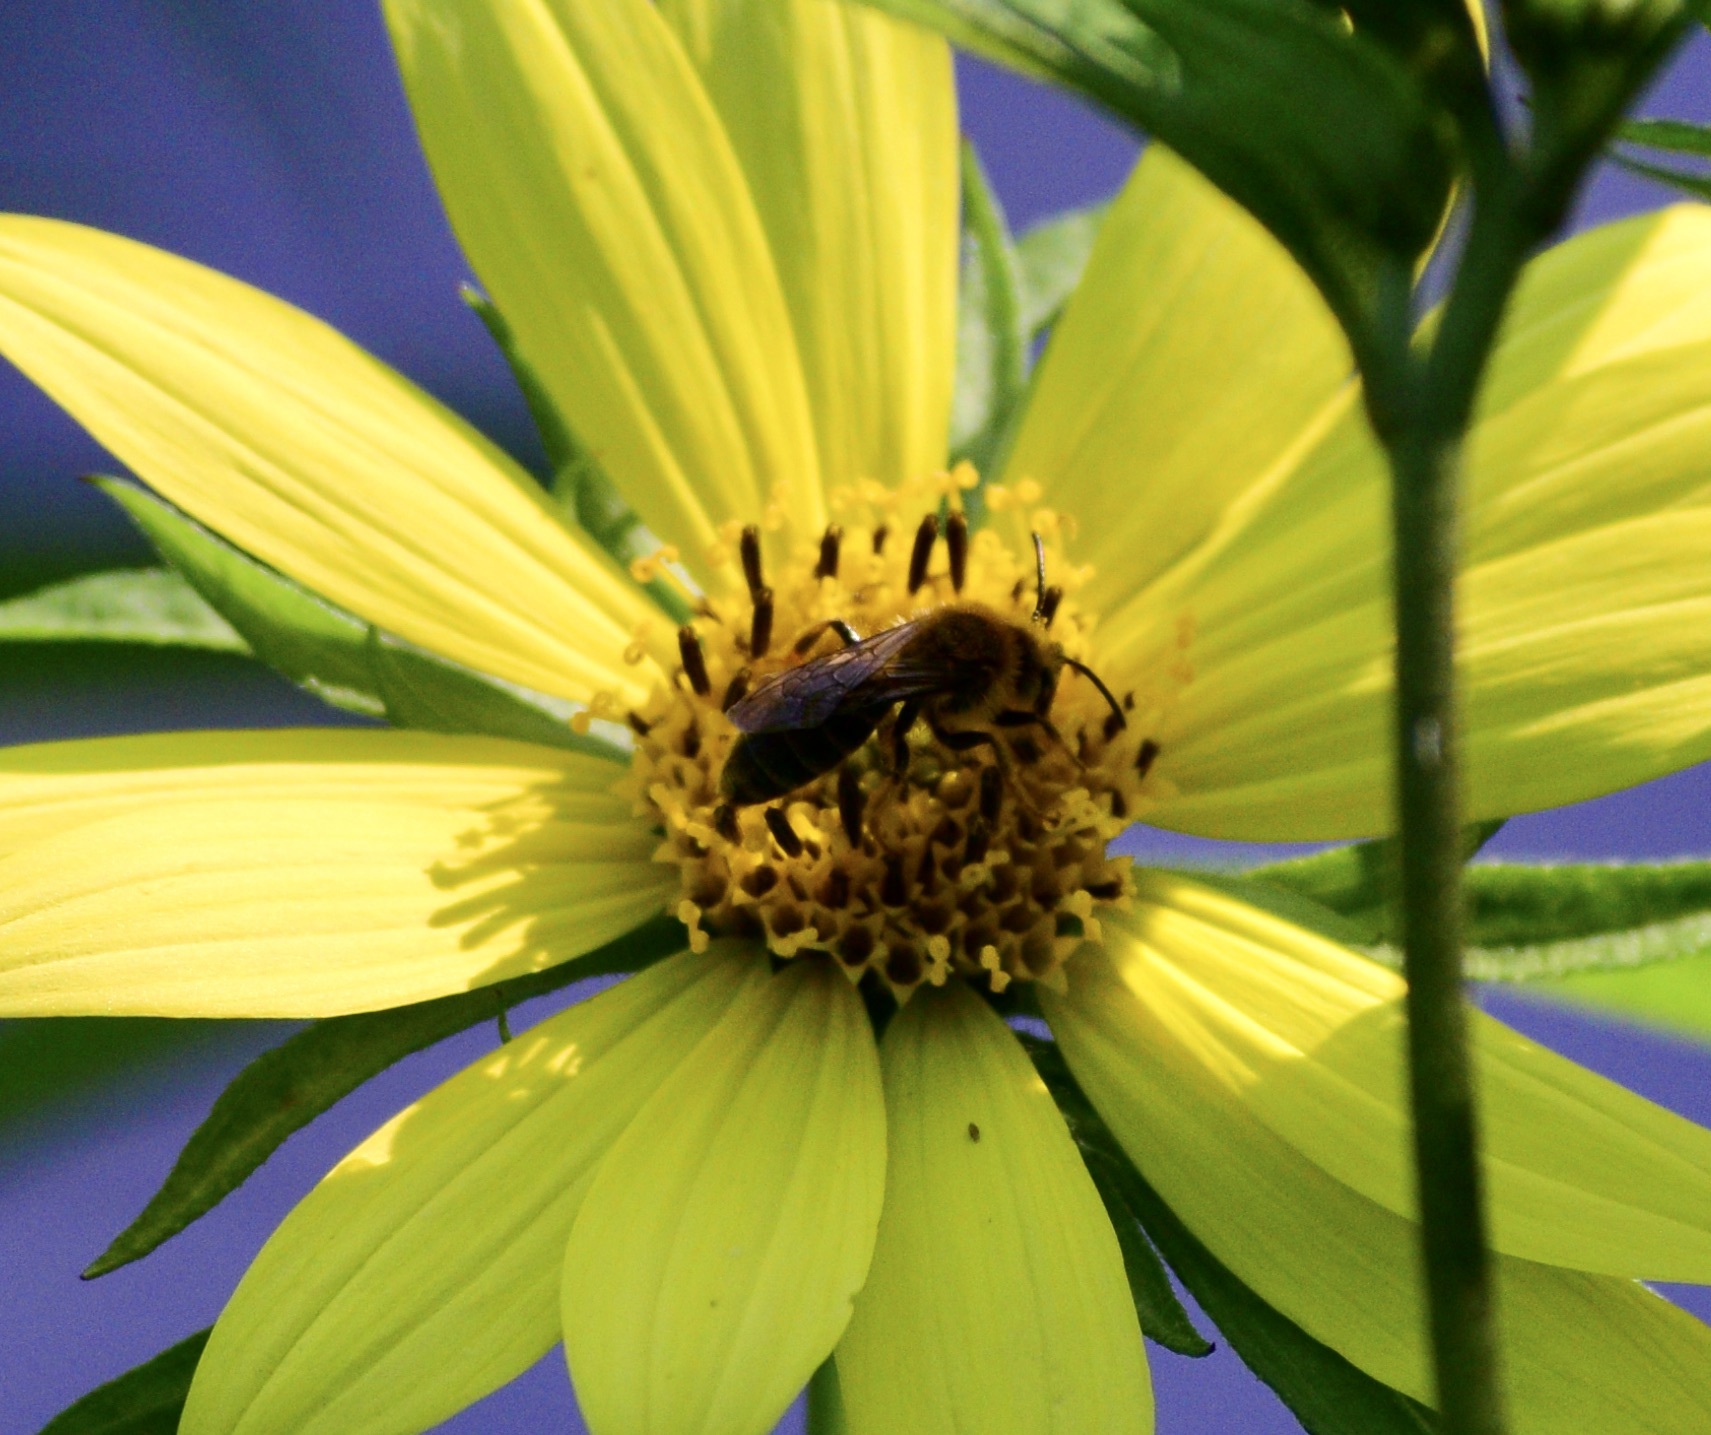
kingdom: Animalia
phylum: Arthropoda
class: Insecta
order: Hymenoptera
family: Andrenidae
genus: Andrena
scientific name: Andrena helianthi
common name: Sunflower mining bee
